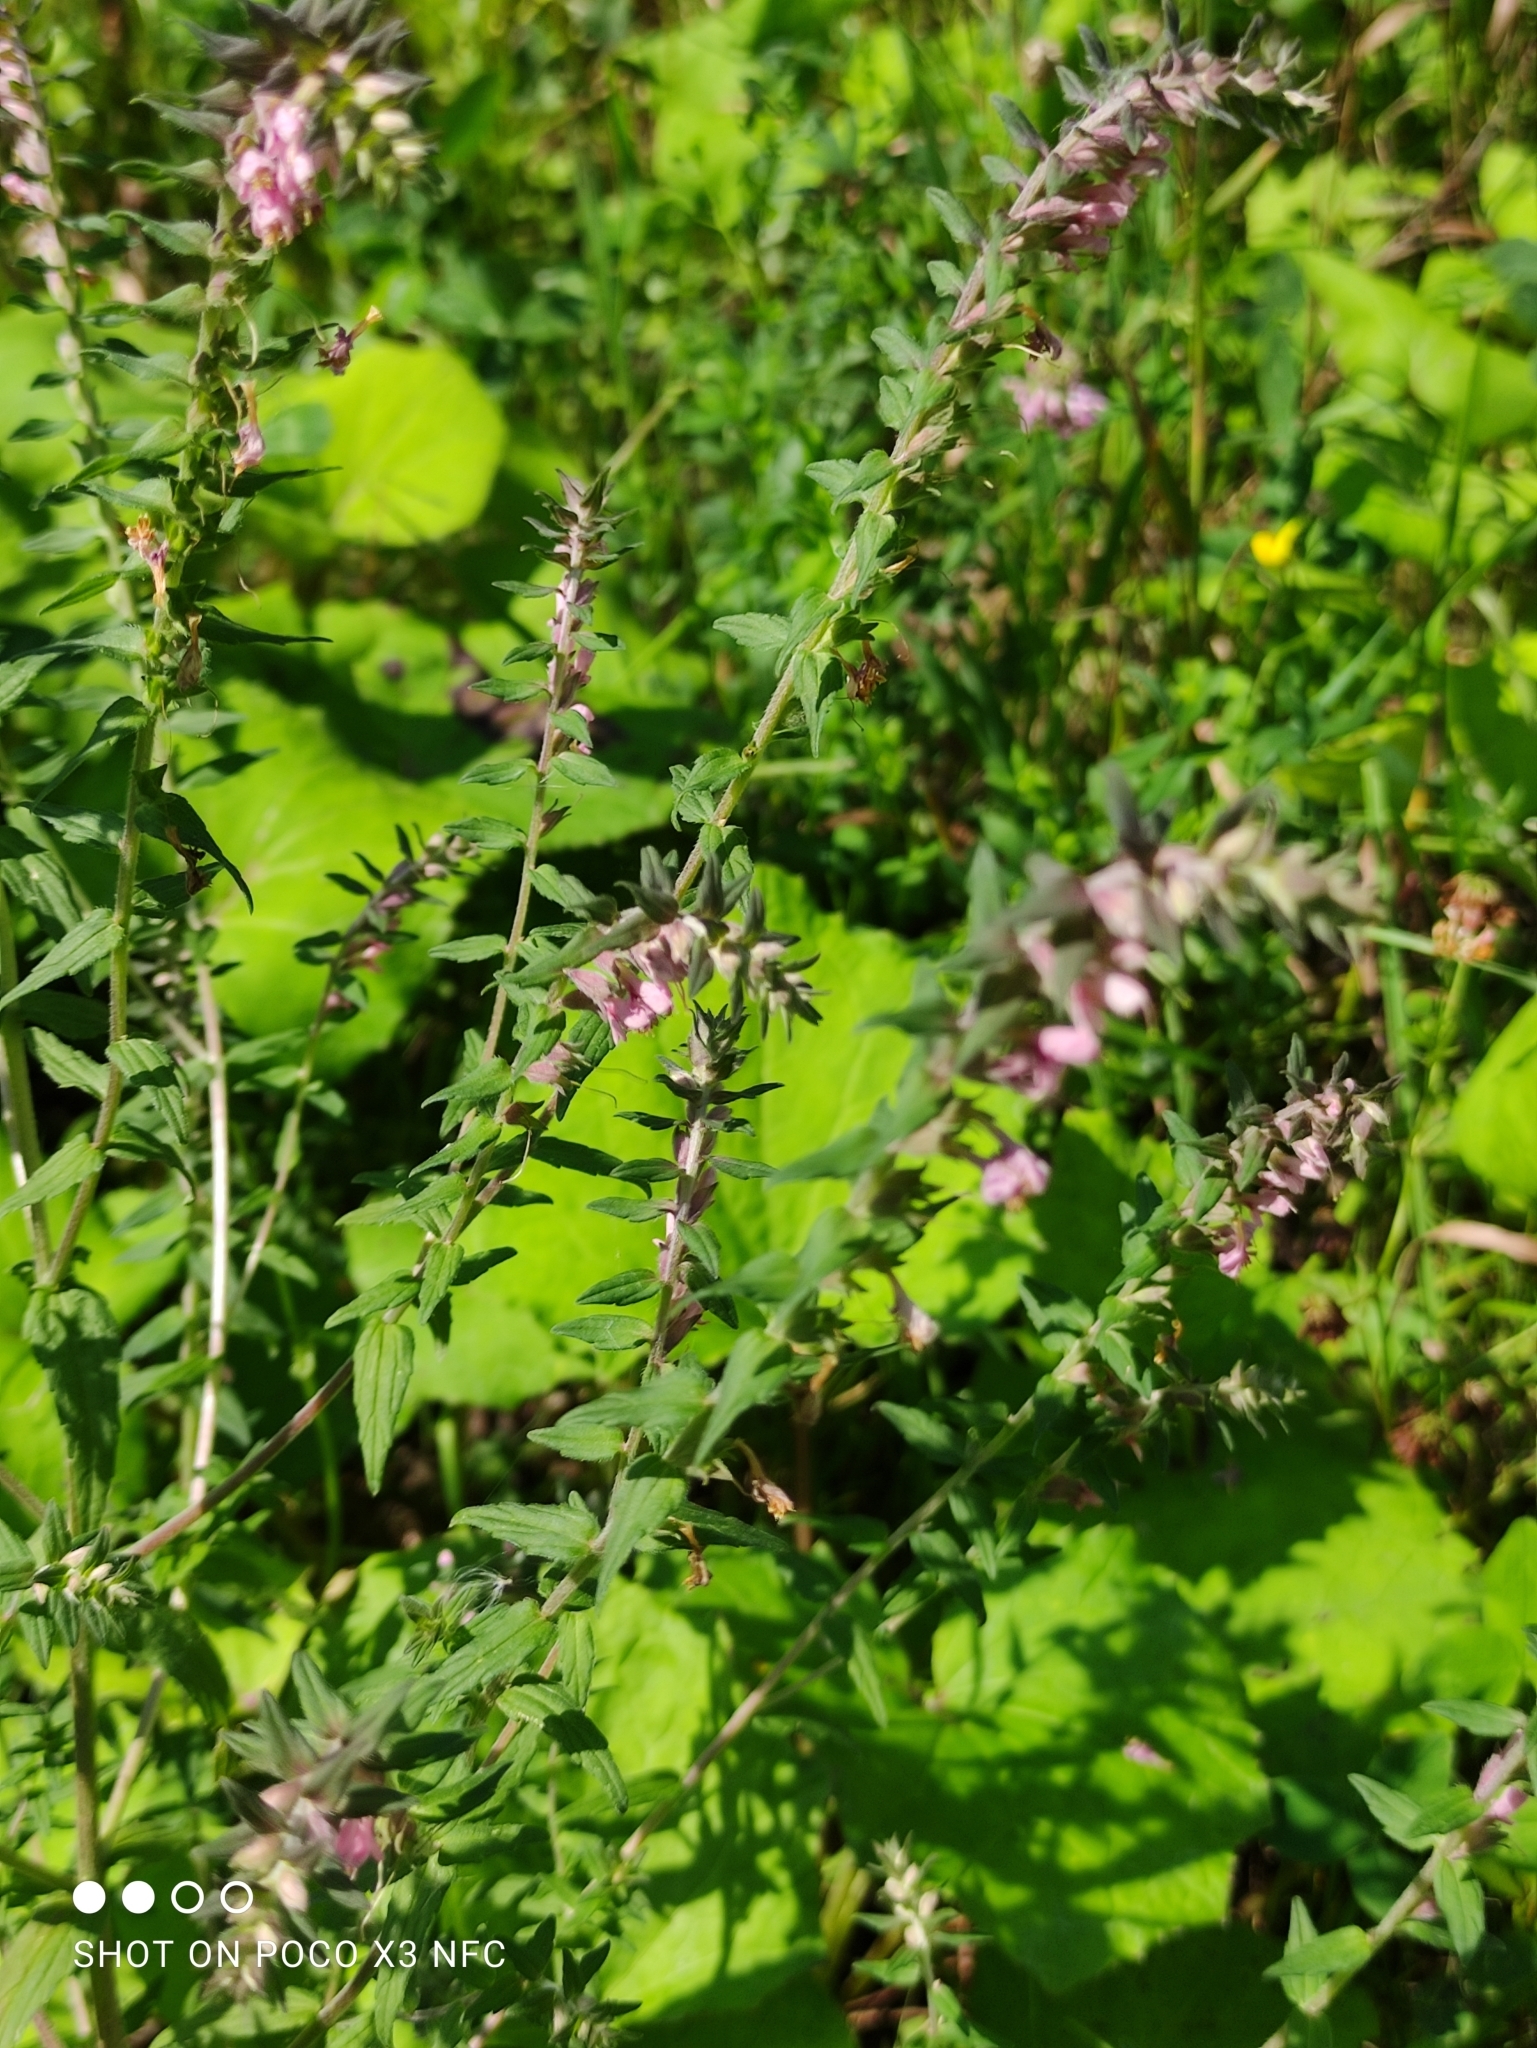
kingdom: Plantae
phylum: Tracheophyta
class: Magnoliopsida
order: Lamiales
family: Orobanchaceae
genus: Odontites
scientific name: Odontites vulgaris
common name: Broomrape
